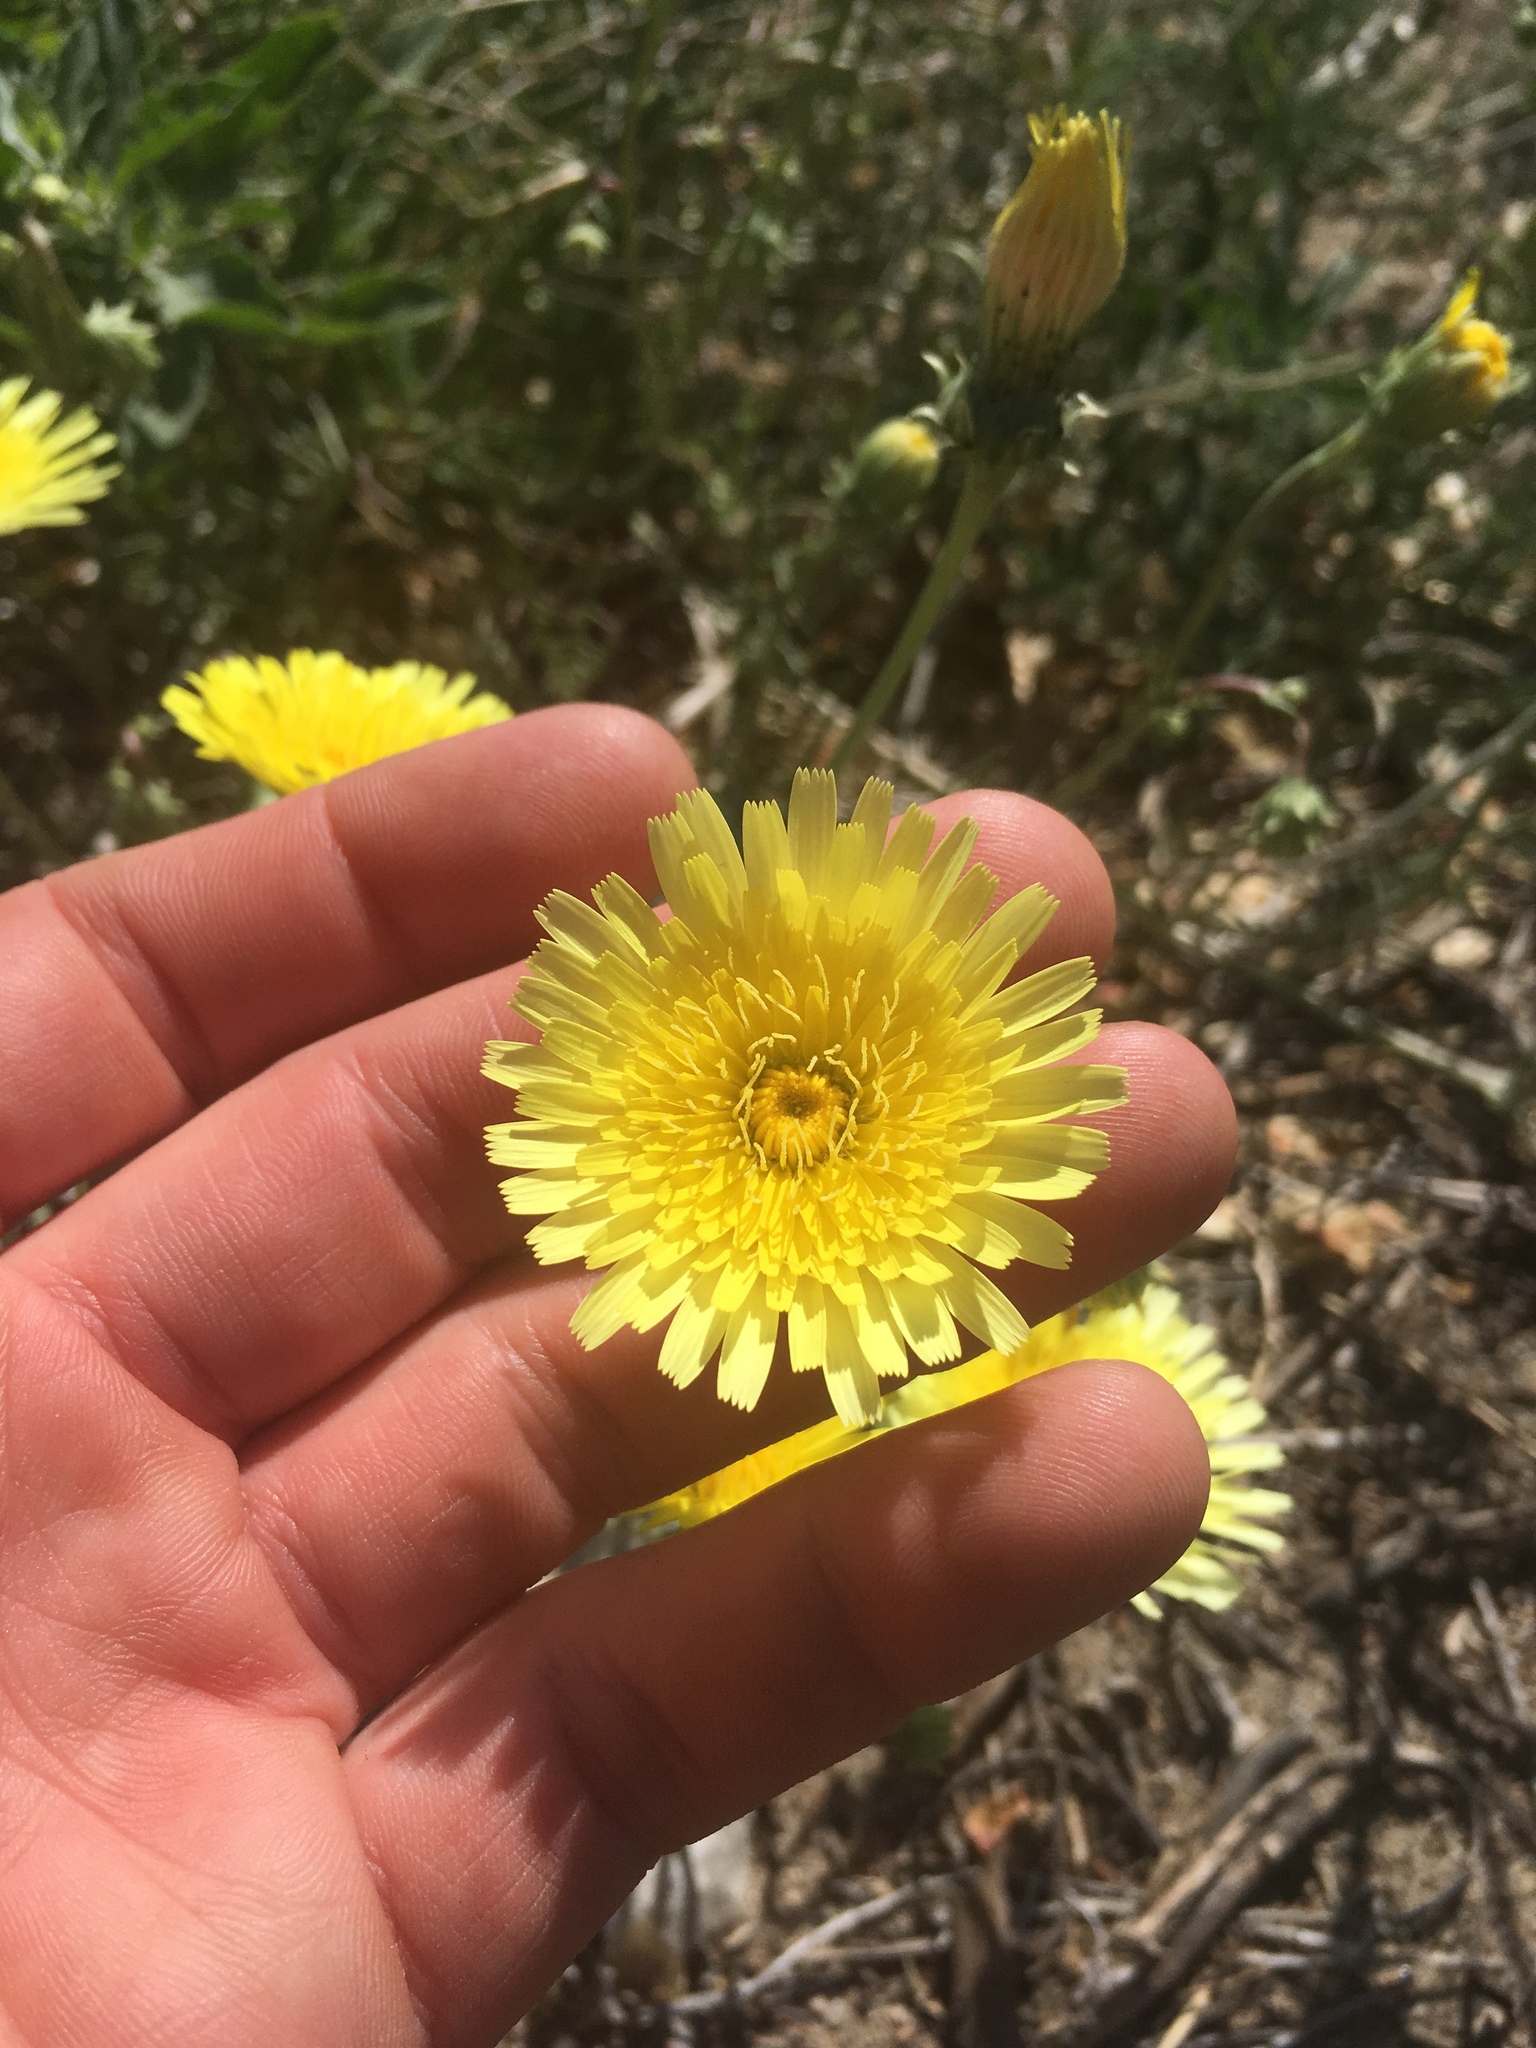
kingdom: Plantae
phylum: Tracheophyta
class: Magnoliopsida
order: Asterales
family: Asteraceae
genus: Malacothrix
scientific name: Malacothrix glabrata
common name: Smooth desert-dandelion
